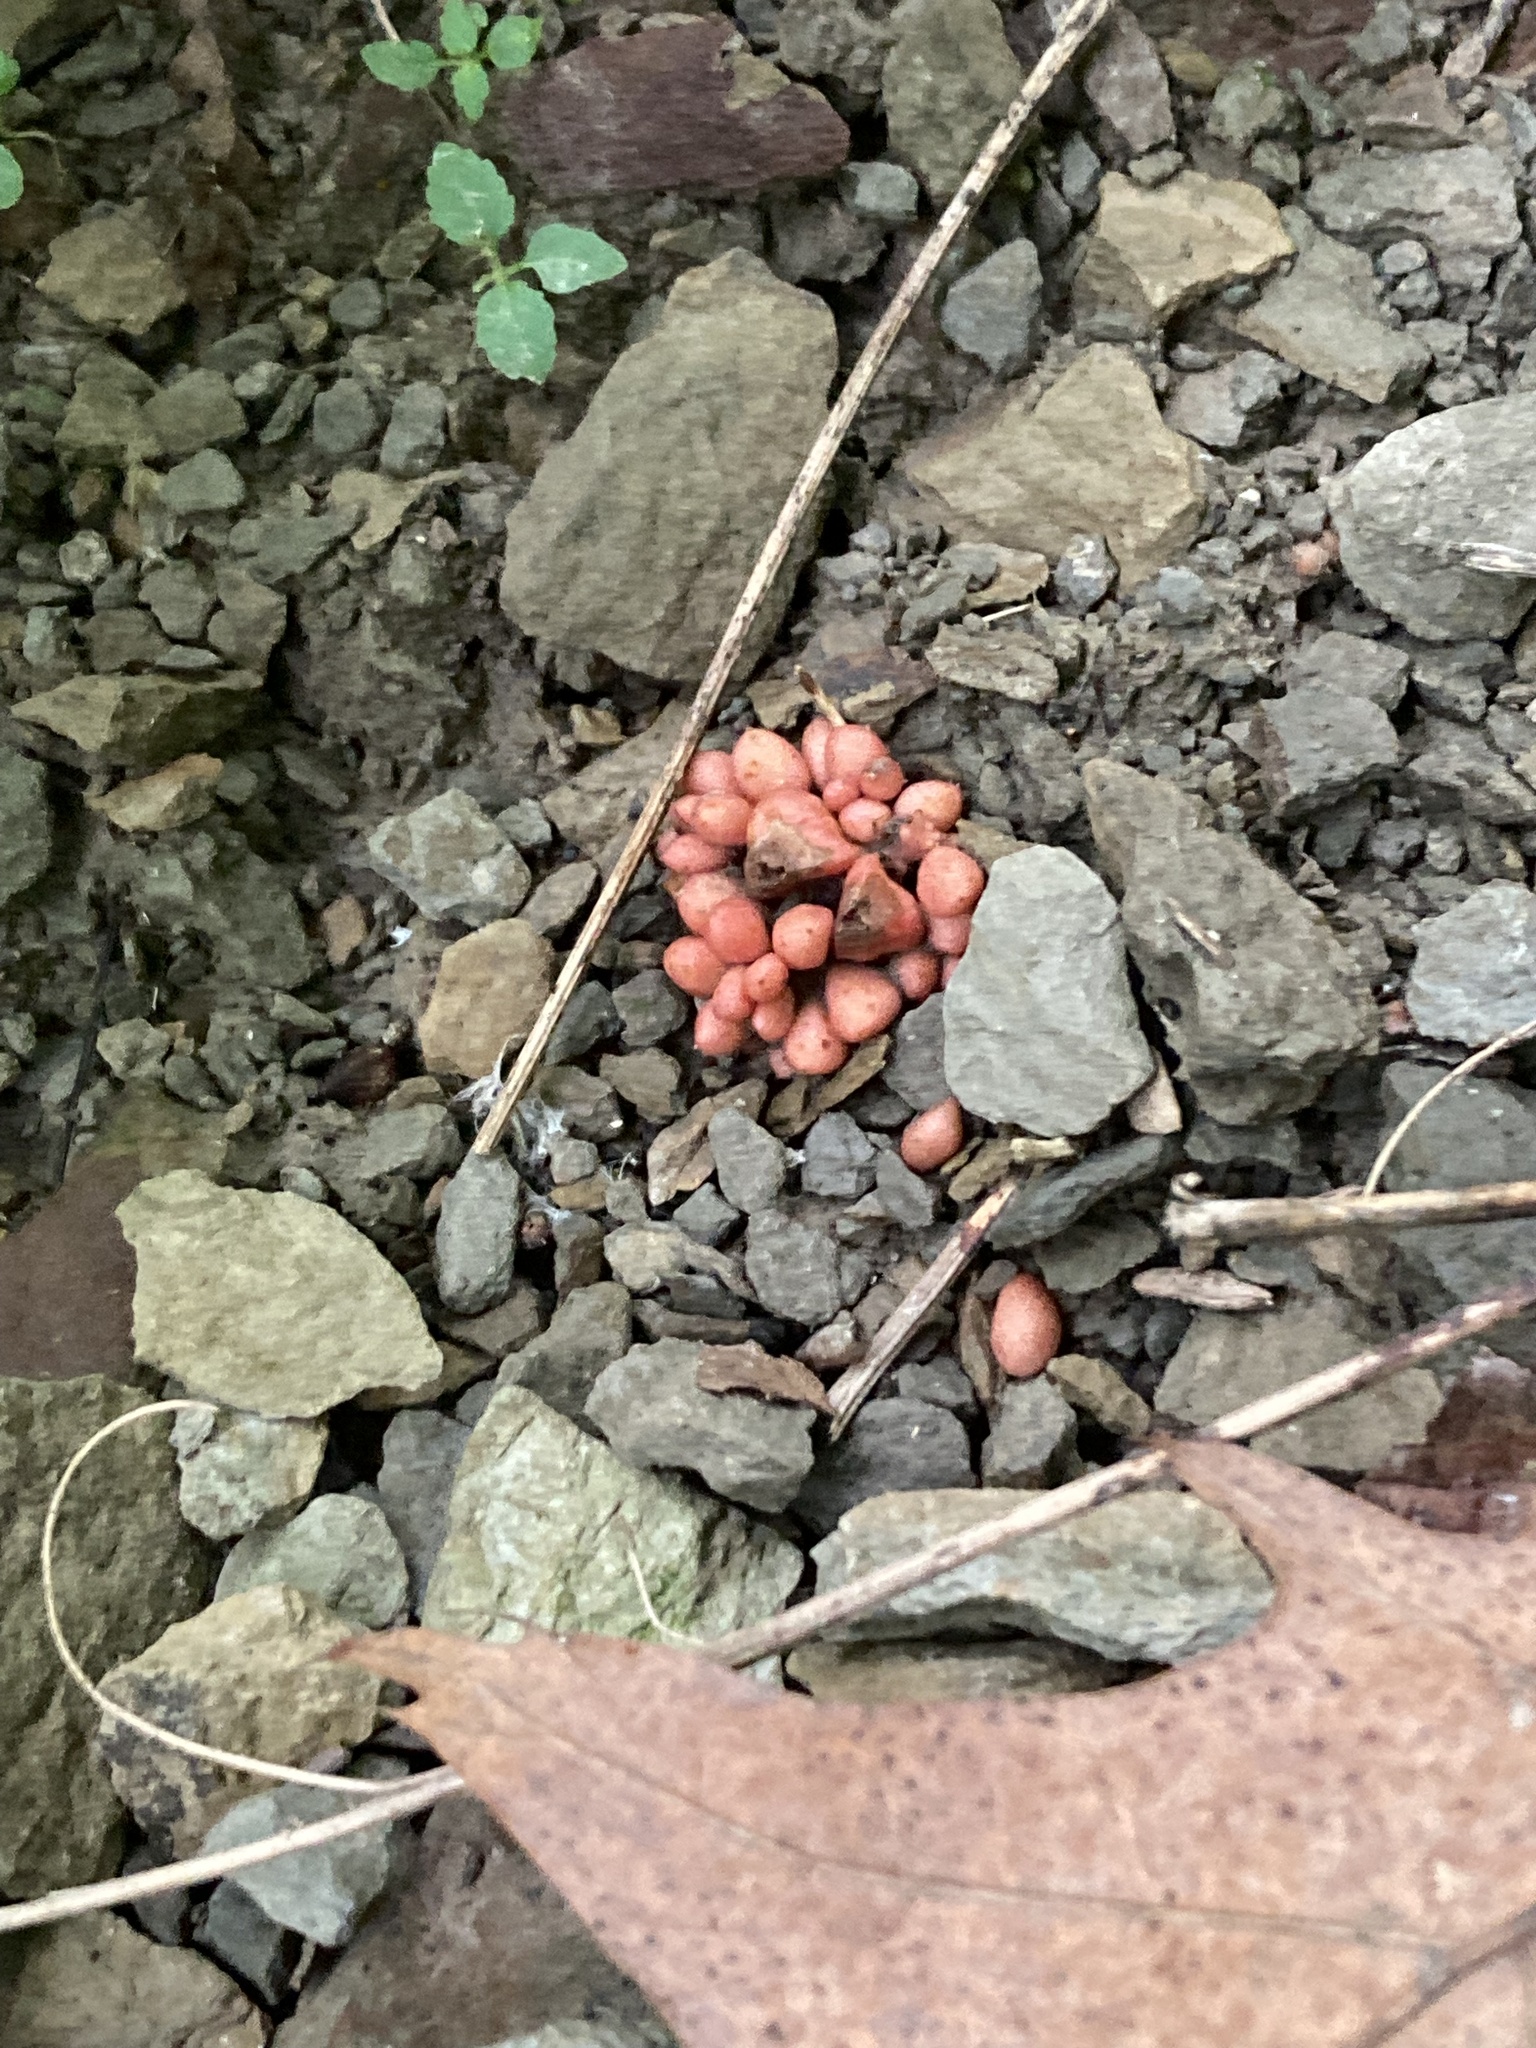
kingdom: Plantae
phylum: Tracheophyta
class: Magnoliopsida
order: Ranunculales
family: Papaveraceae
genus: Dicentra
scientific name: Dicentra cucullaria
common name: Dutchman's breeches
